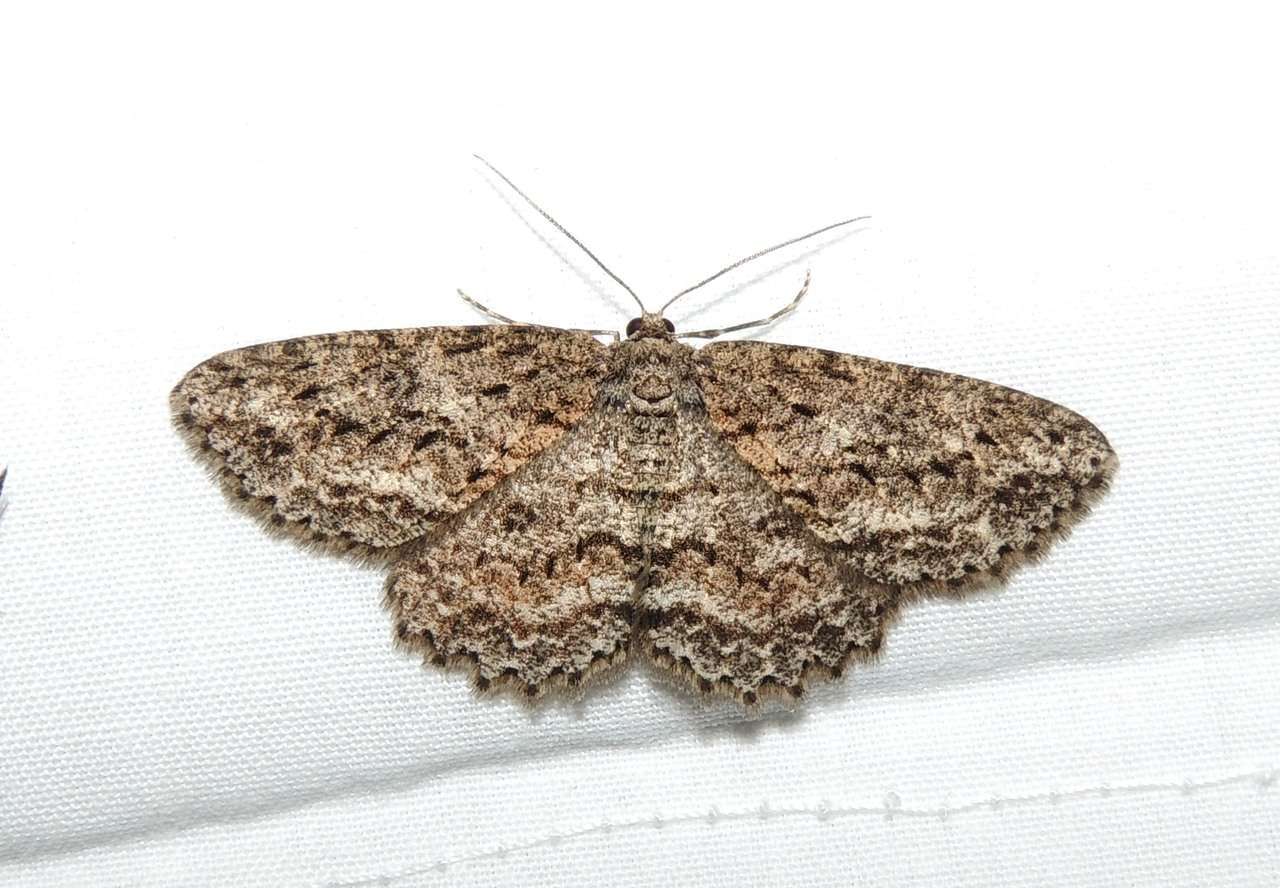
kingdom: Animalia
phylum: Arthropoda
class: Insecta
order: Lepidoptera
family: Geometridae
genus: Ectropis
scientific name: Ectropis fractaria
